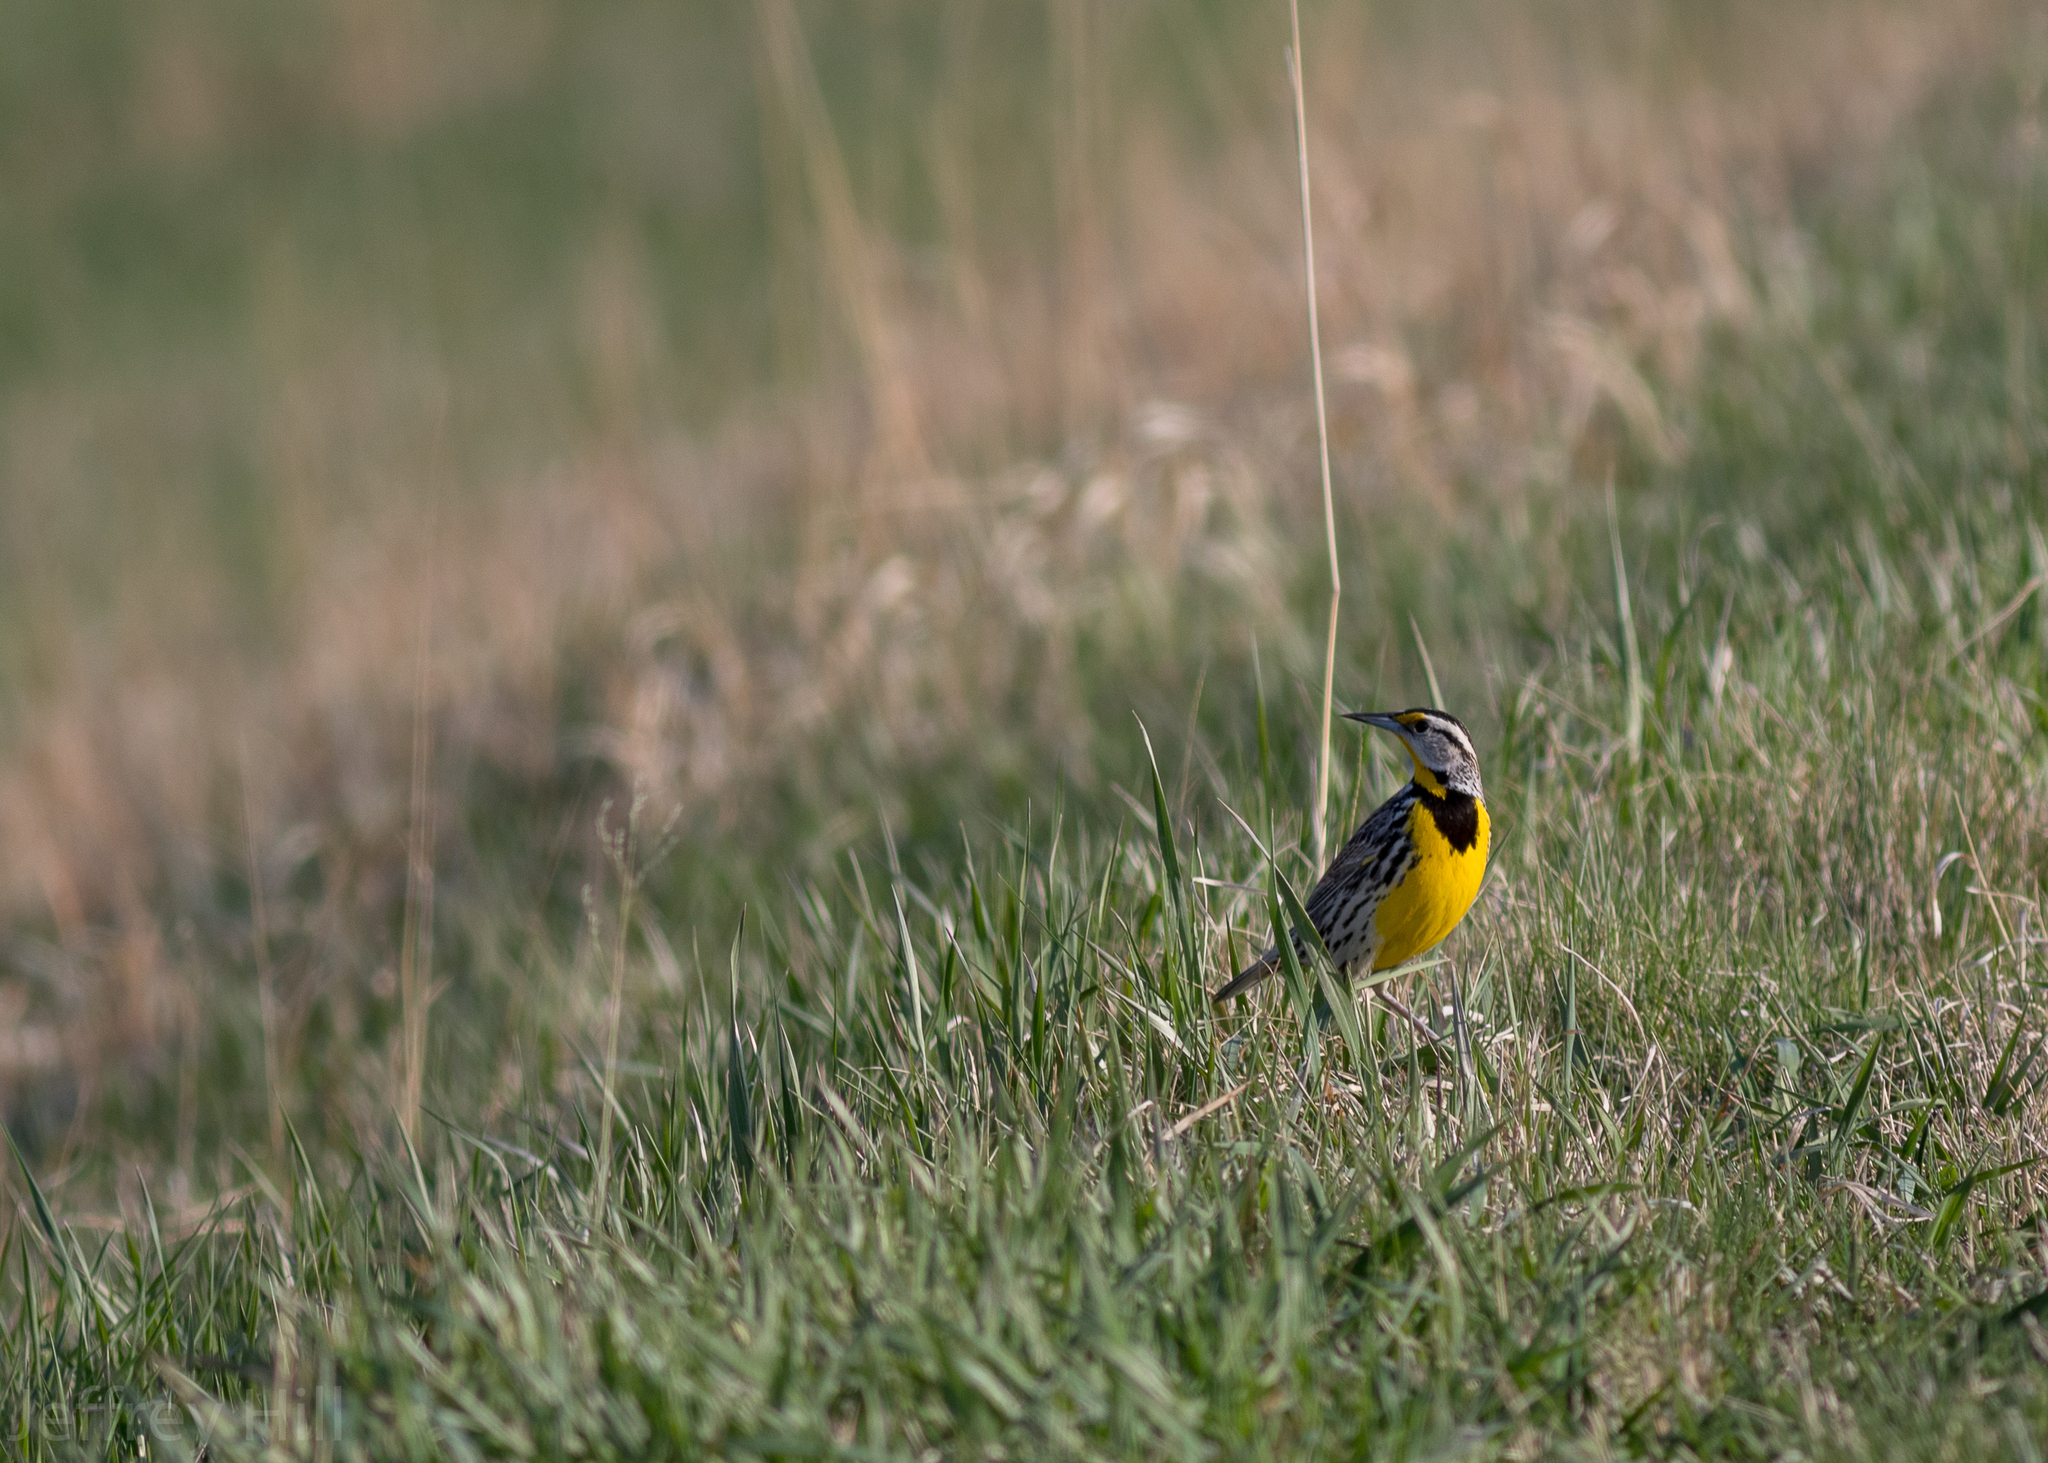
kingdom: Animalia
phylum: Chordata
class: Aves
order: Passeriformes
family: Icteridae
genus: Sturnella
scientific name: Sturnella neglecta
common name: Western meadowlark
